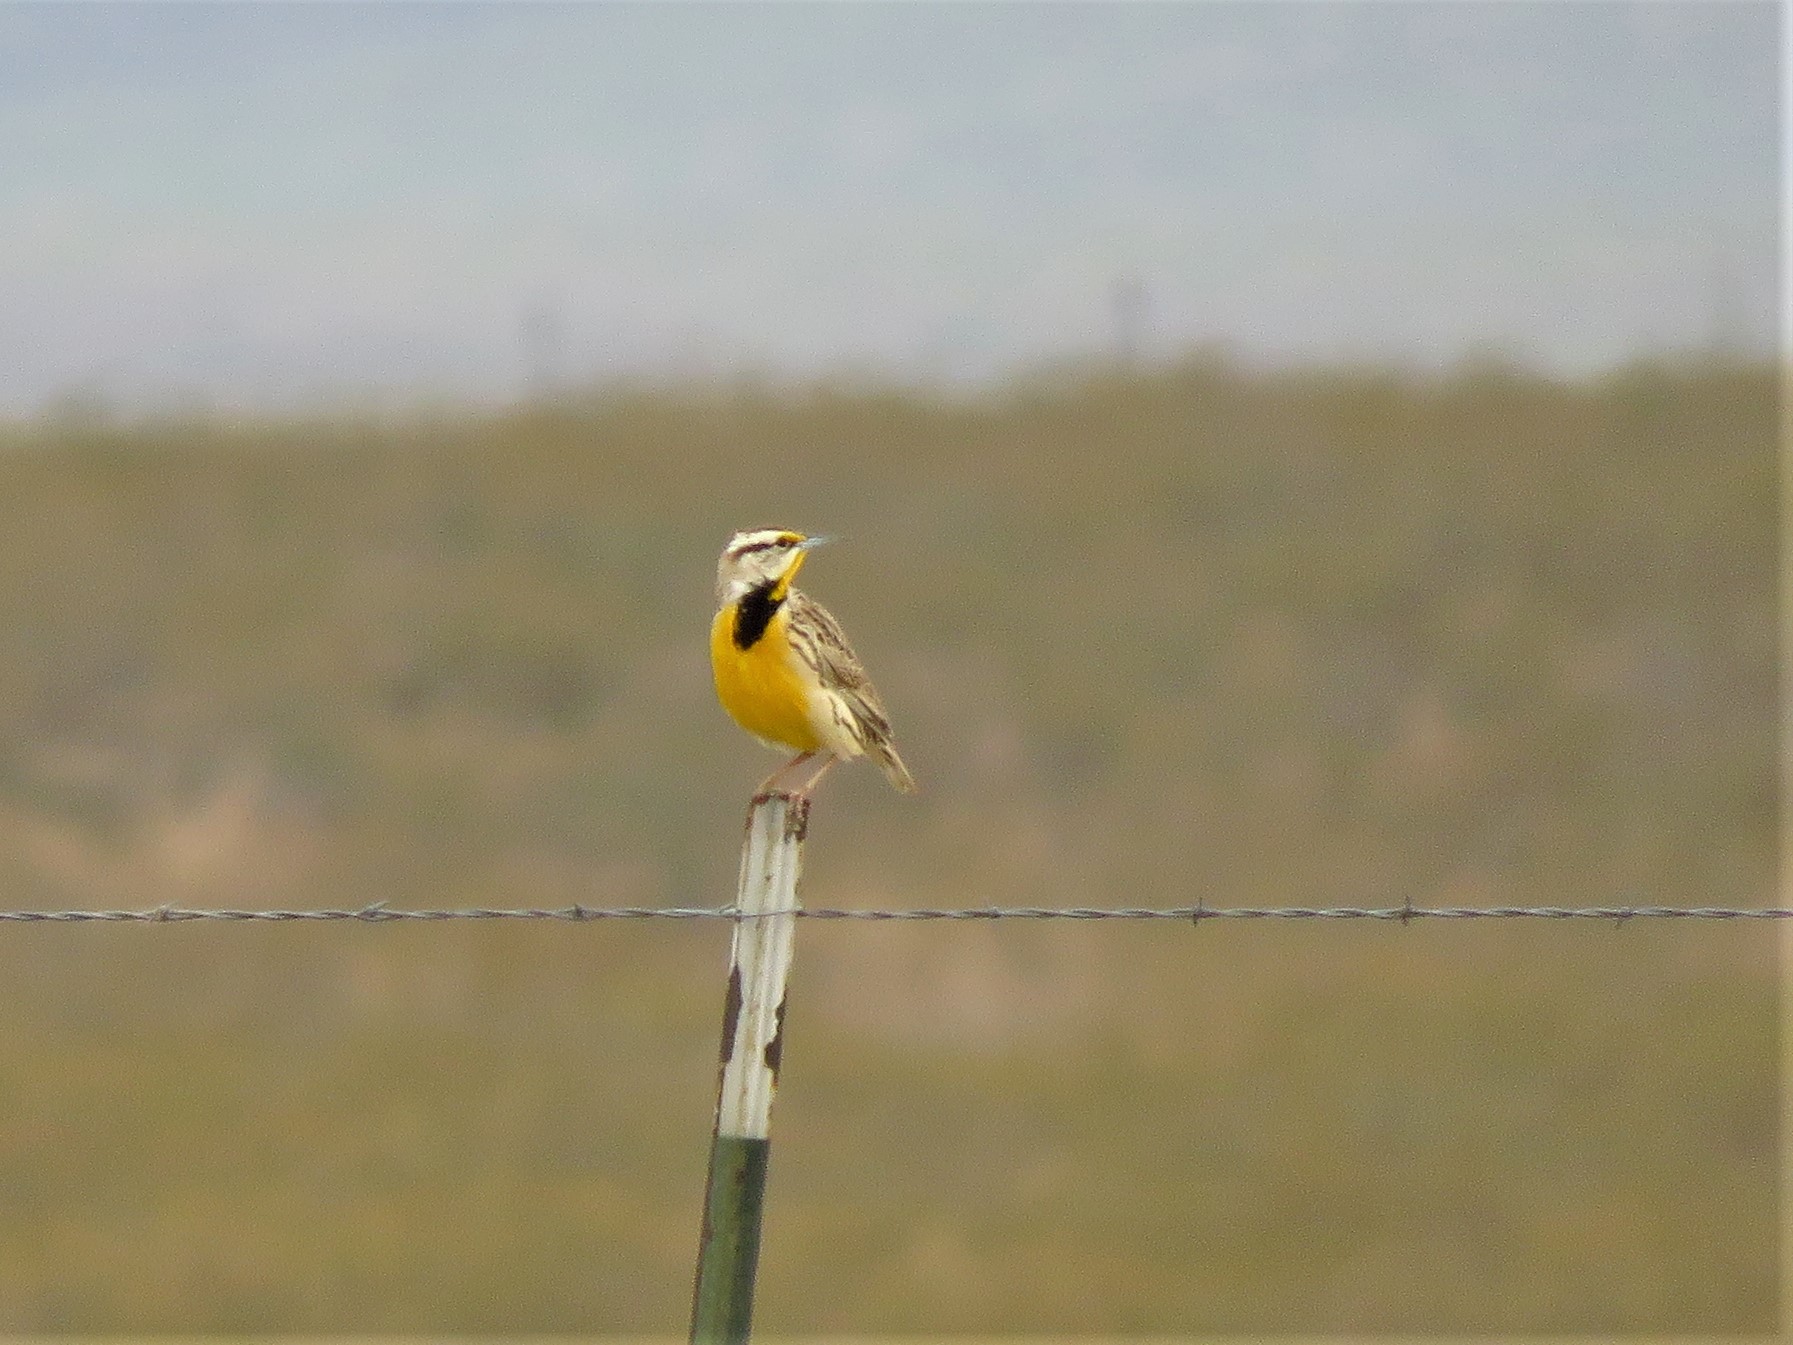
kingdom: Animalia
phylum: Chordata
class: Aves
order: Passeriformes
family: Icteridae
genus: Sturnella
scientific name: Sturnella lilianae
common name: Lilian's meadowlark
